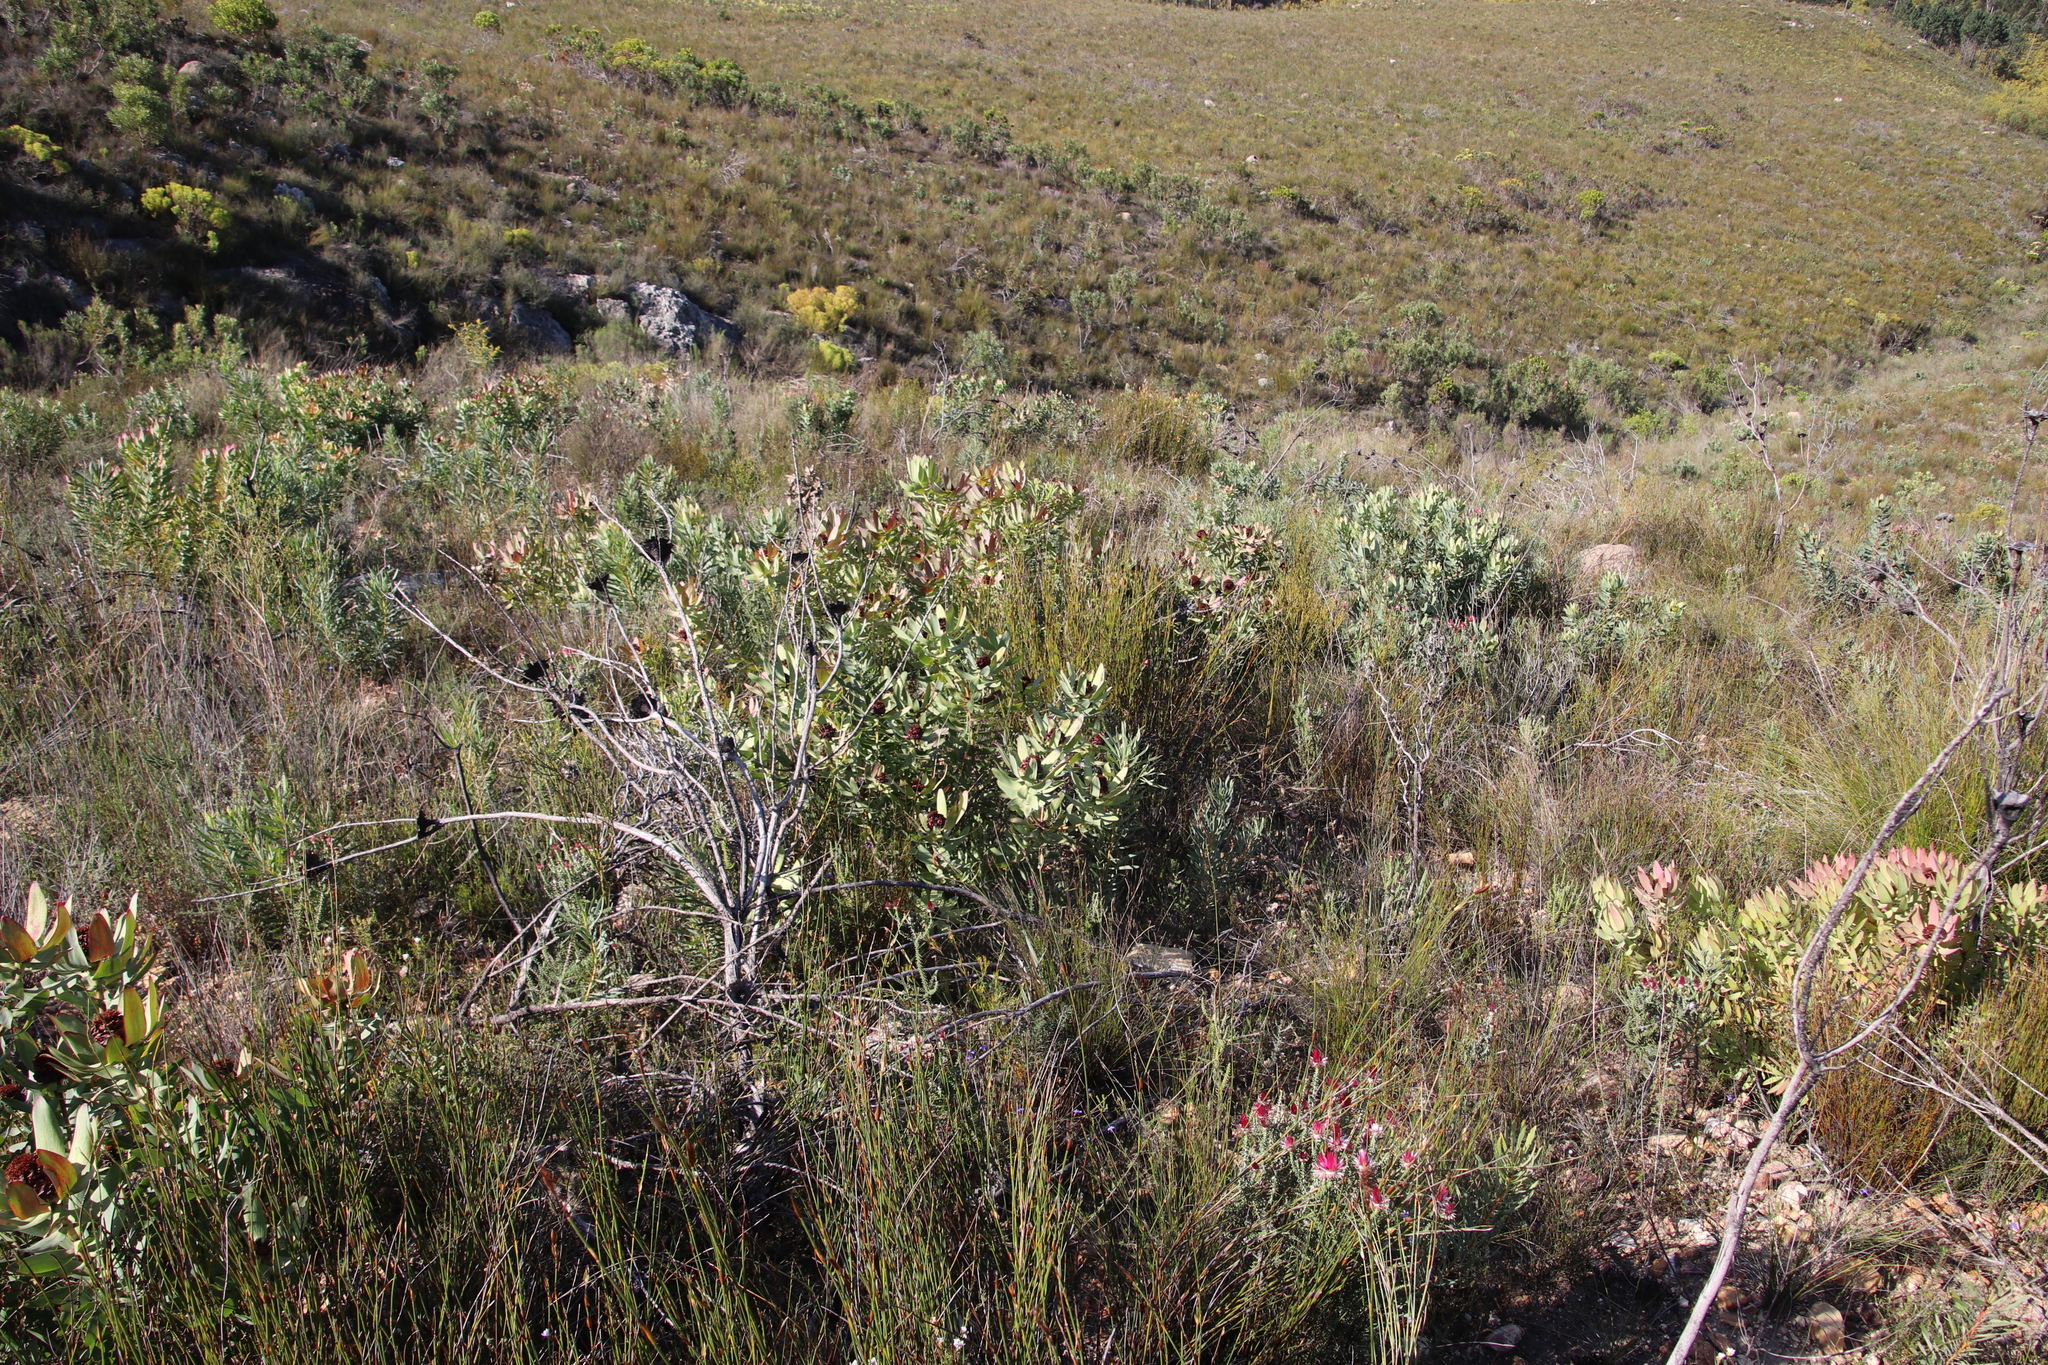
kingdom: Plantae
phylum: Tracheophyta
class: Magnoliopsida
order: Proteales
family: Proteaceae
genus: Leucadendron
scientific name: Leucadendron tinctum
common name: Spicy conebush
